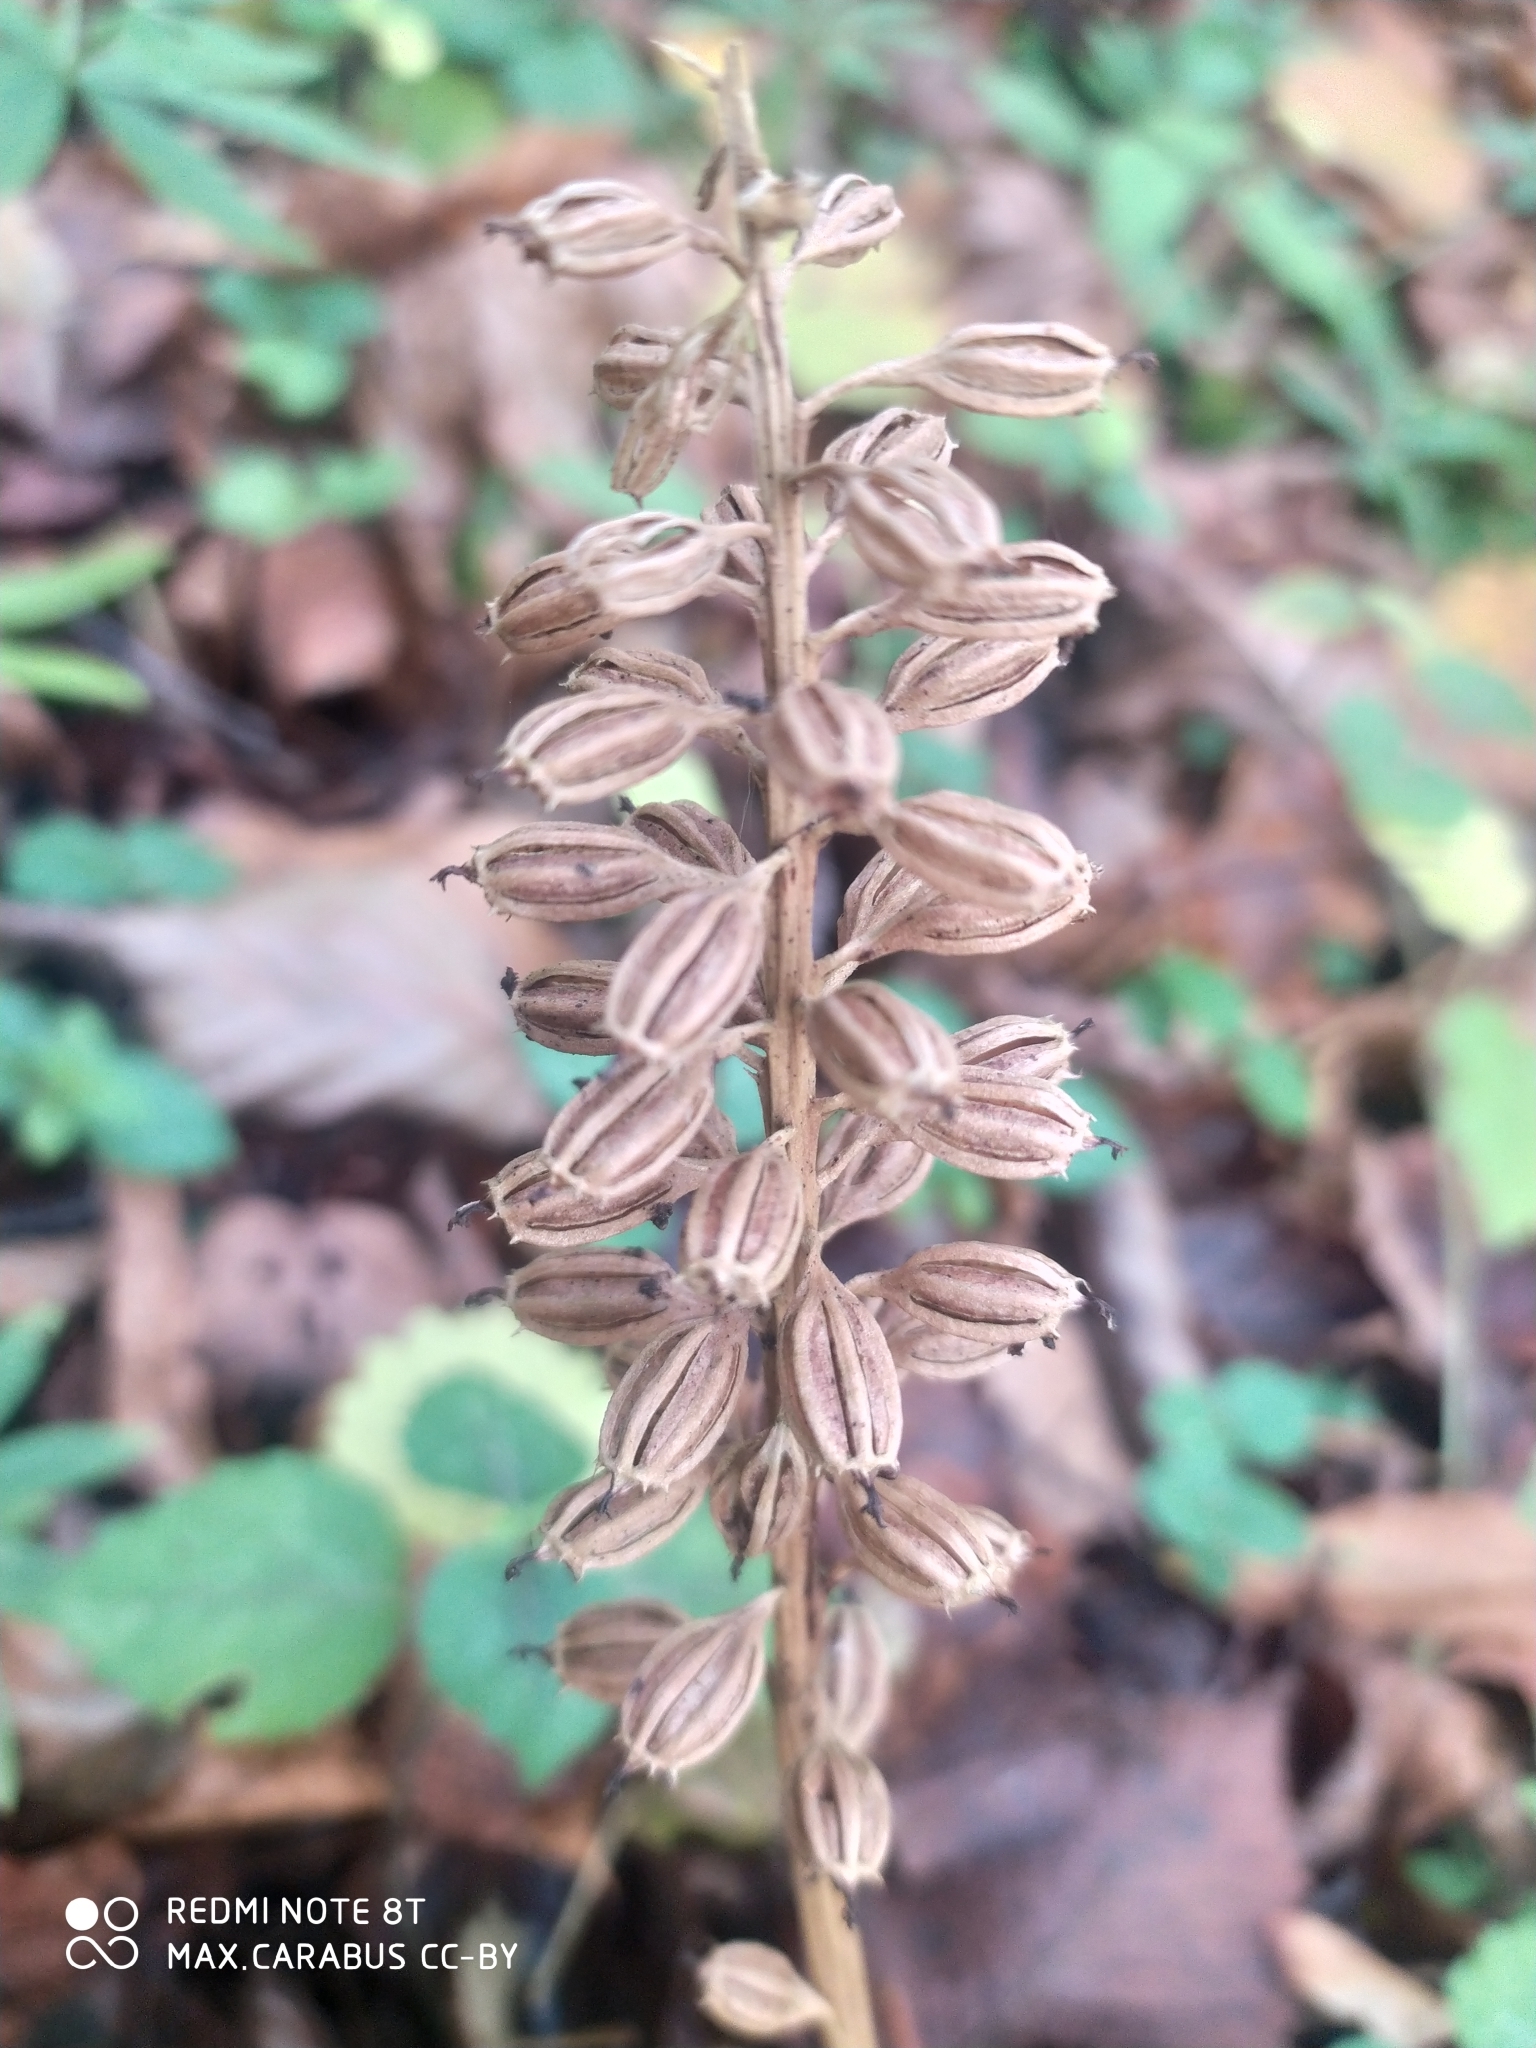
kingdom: Plantae
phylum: Tracheophyta
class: Liliopsida
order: Asparagales
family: Orchidaceae
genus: Neottia
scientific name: Neottia nidus-avis
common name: Bird's-nest orchid
